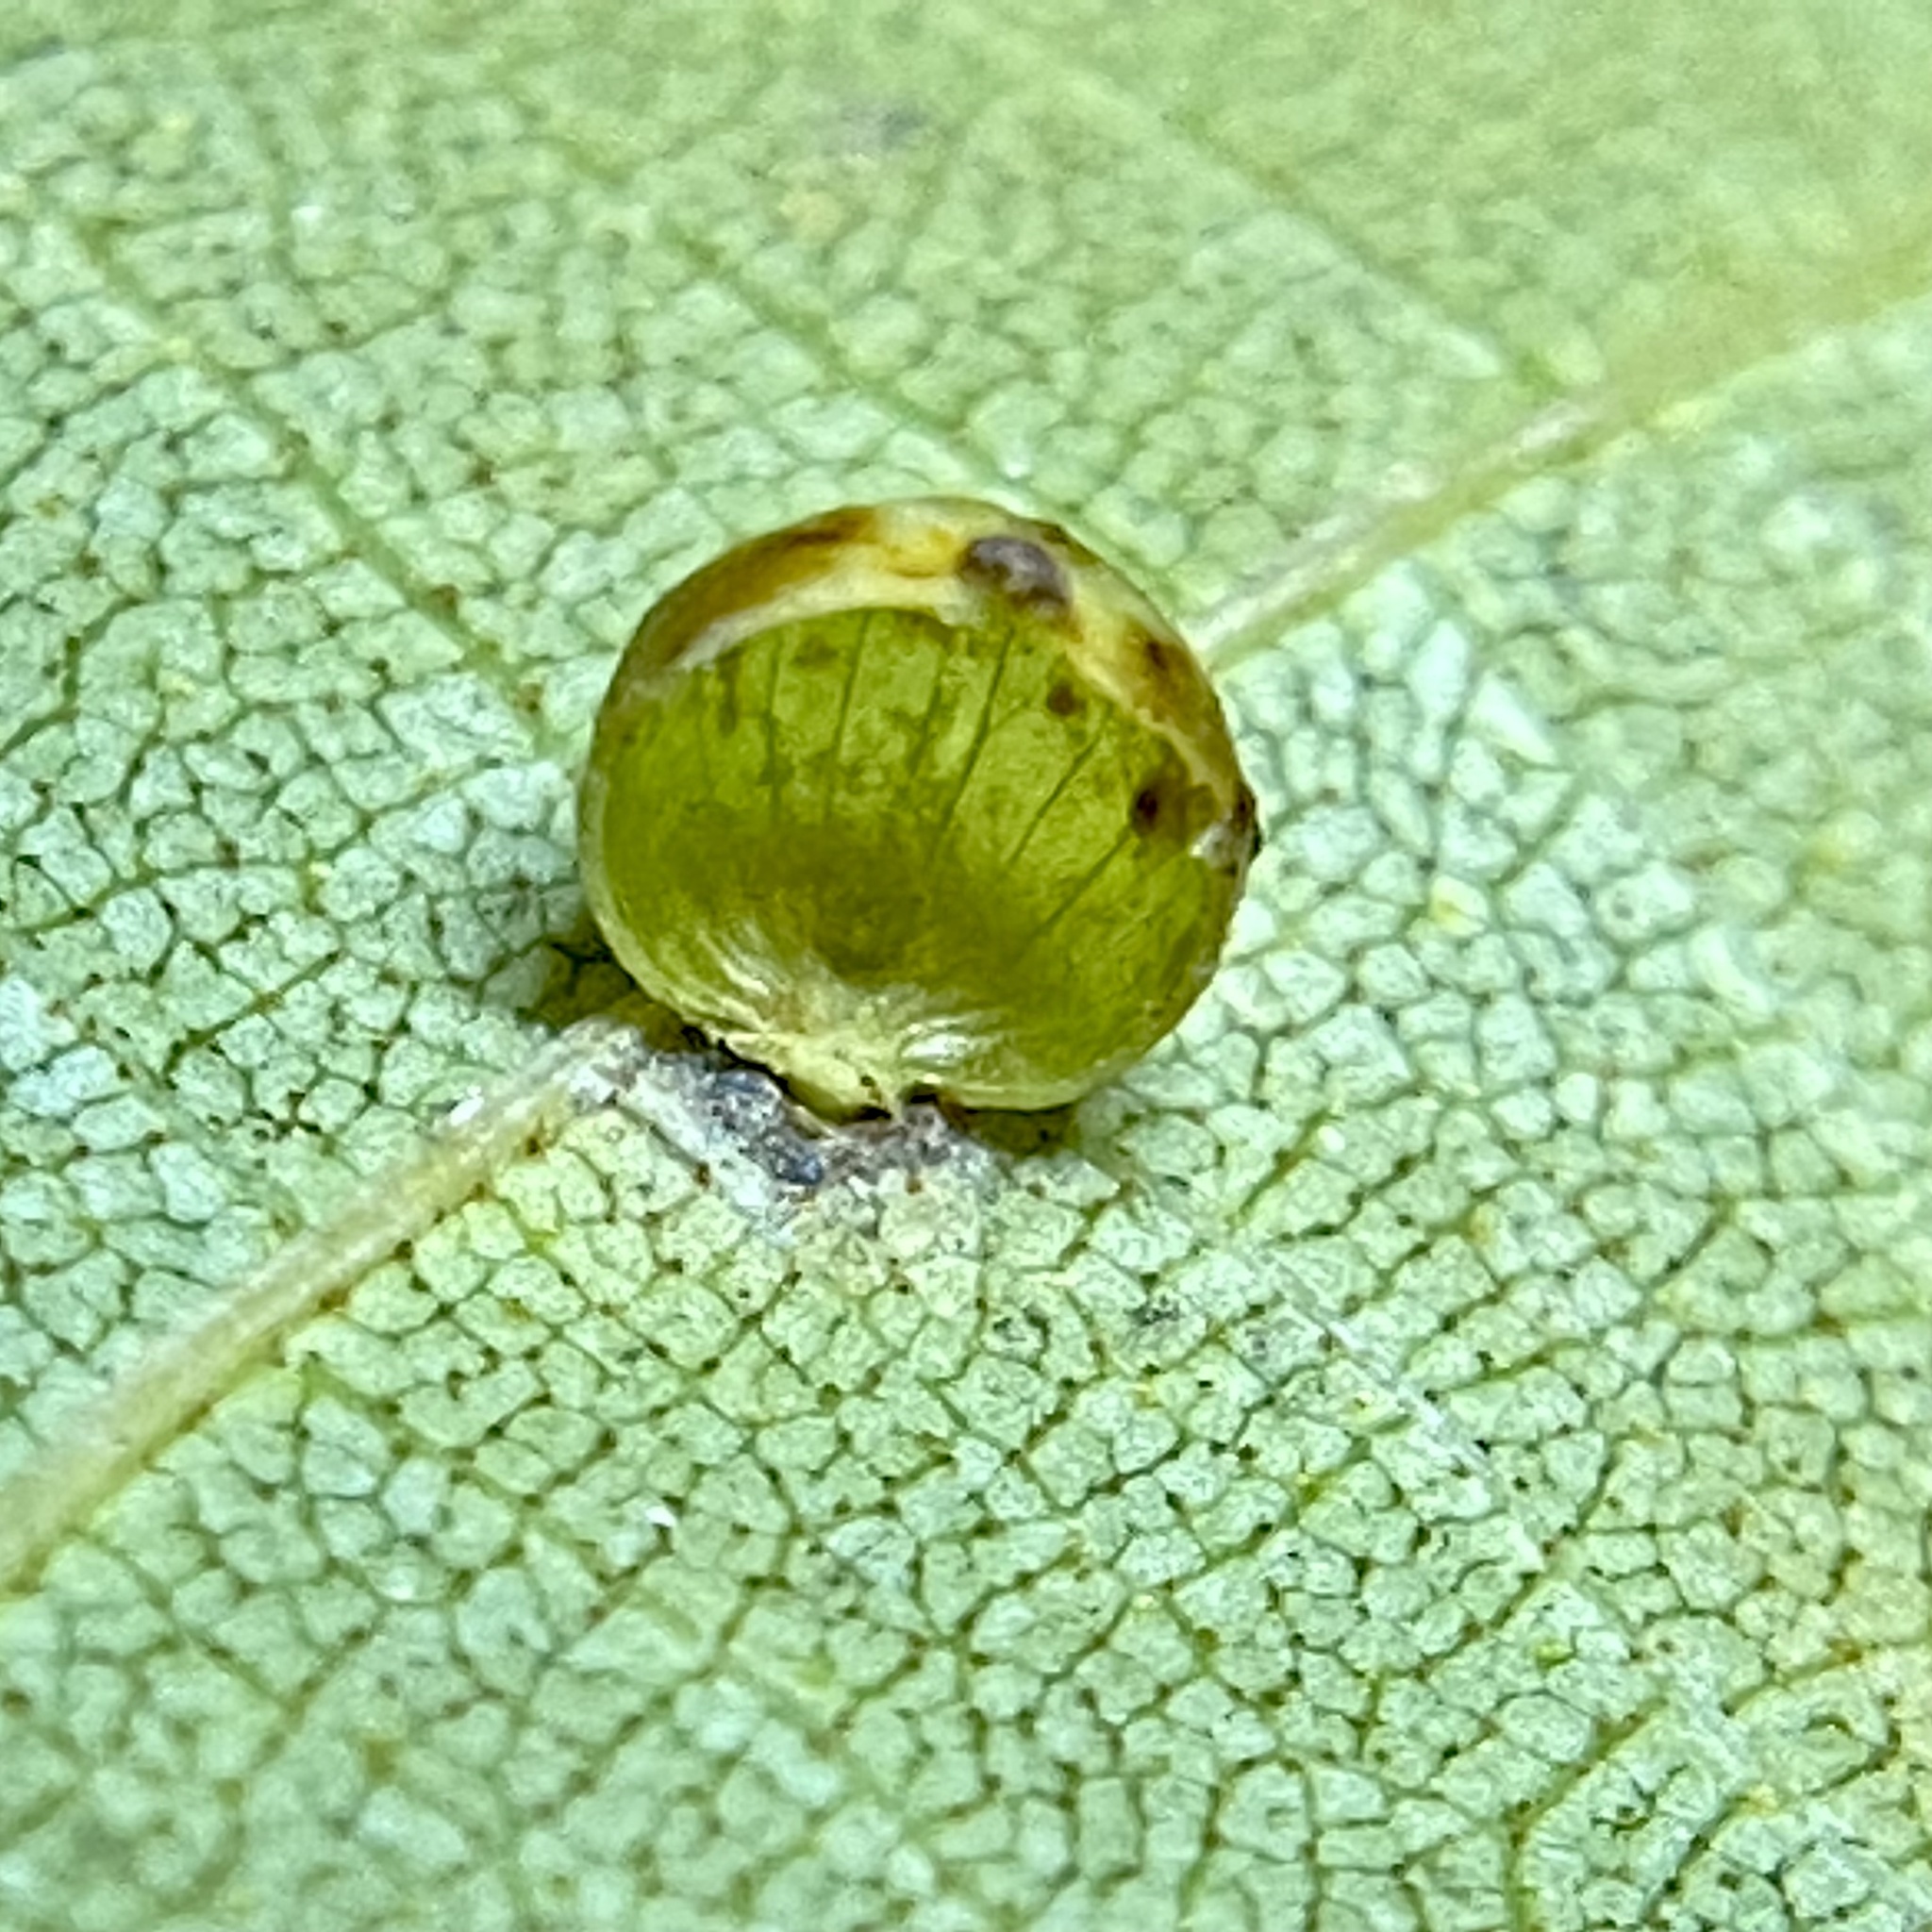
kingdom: Animalia
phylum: Arthropoda
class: Insecta
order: Diptera
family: Cecidomyiidae
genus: Caryomyia
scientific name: Caryomyia leviglobus
